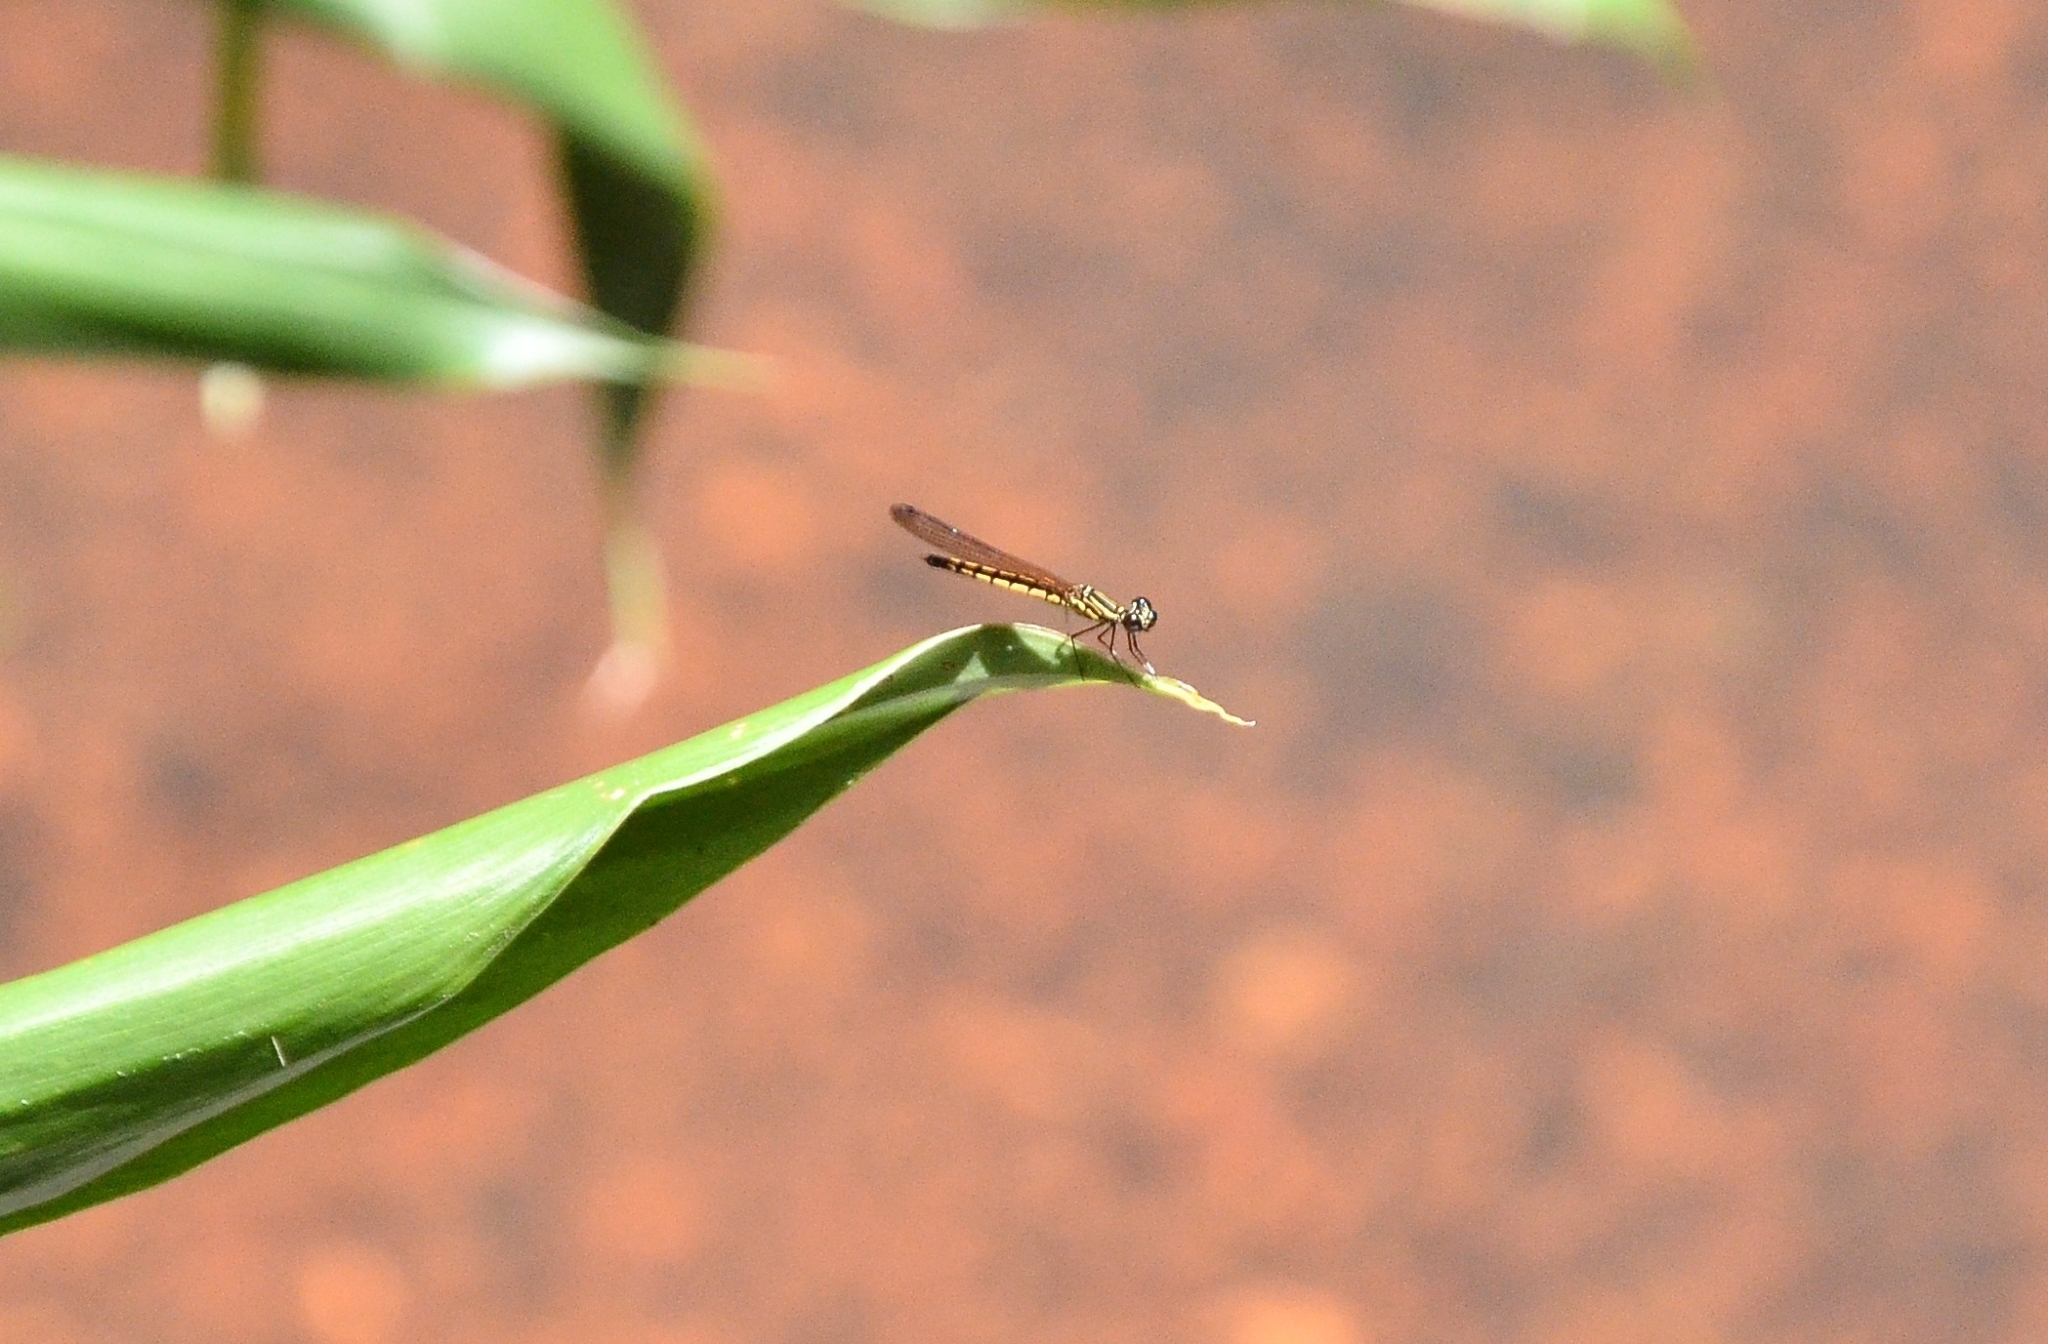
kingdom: Animalia
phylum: Arthropoda
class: Insecta
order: Odonata
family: Chlorocyphidae
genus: Libellago
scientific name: Libellago indica
